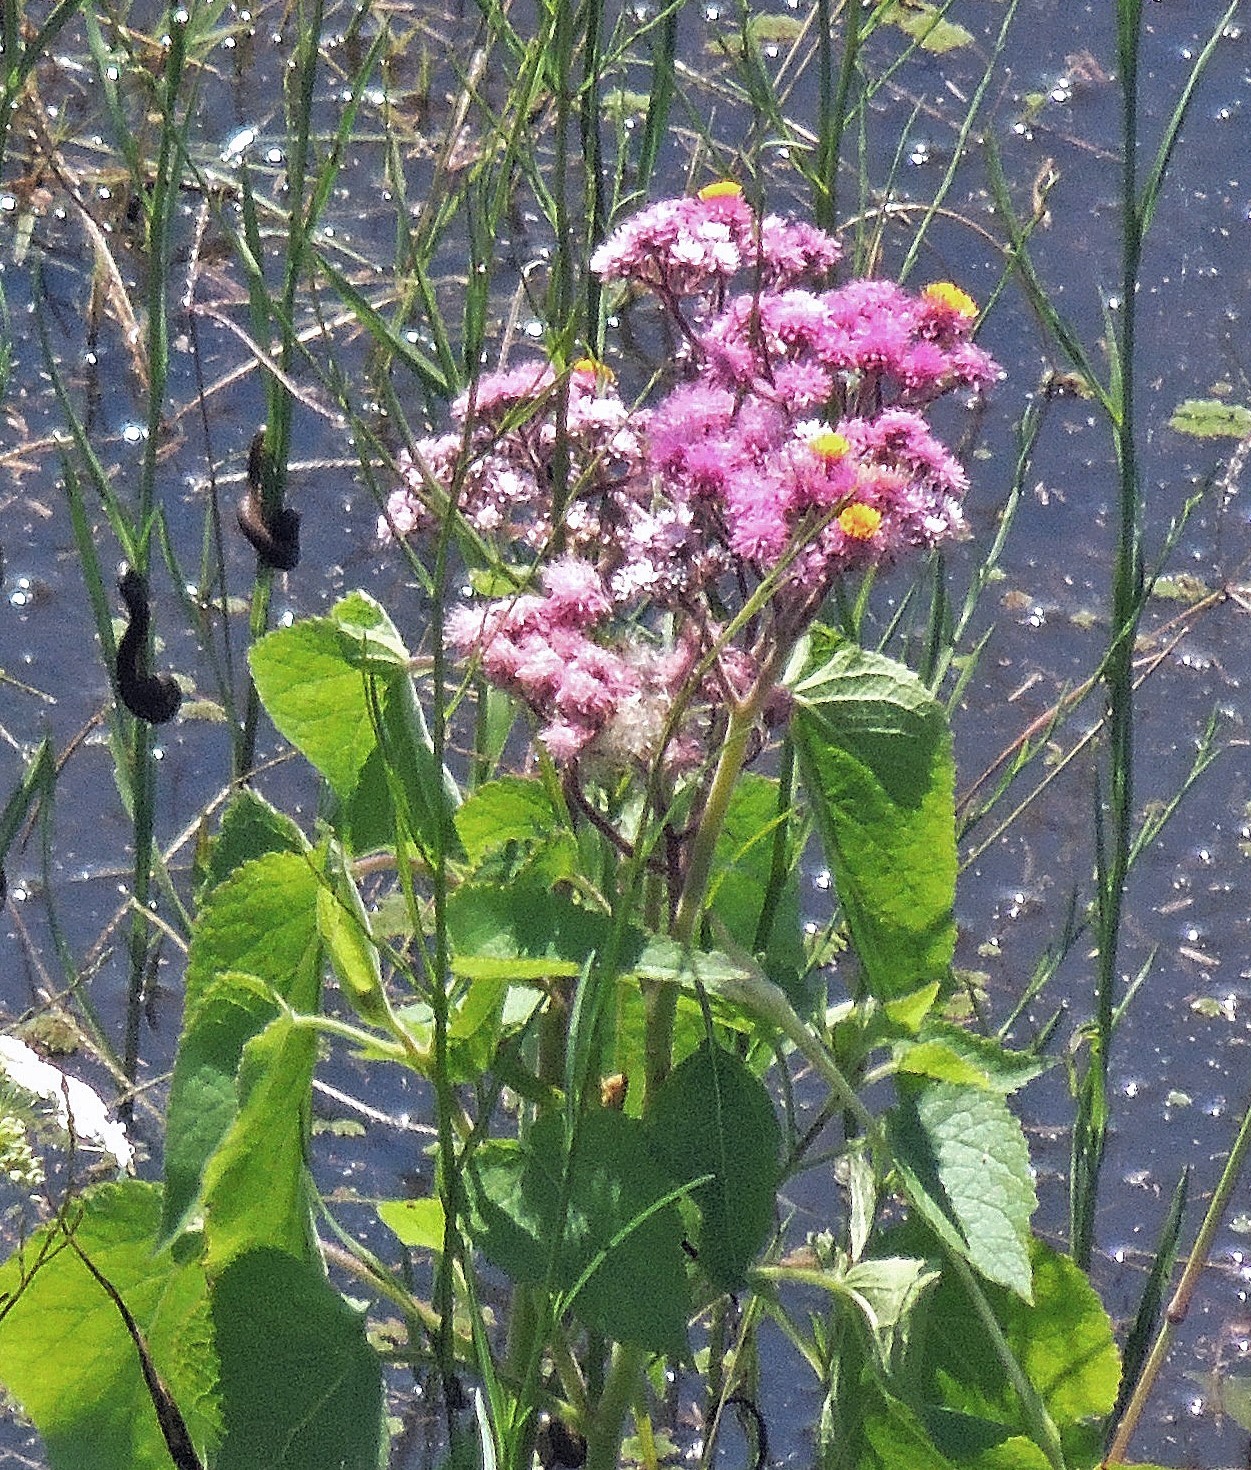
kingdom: Plantae
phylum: Tracheophyta
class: Magnoliopsida
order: Asterales
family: Asteraceae
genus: Urolepis
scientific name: Urolepis hecatantha
